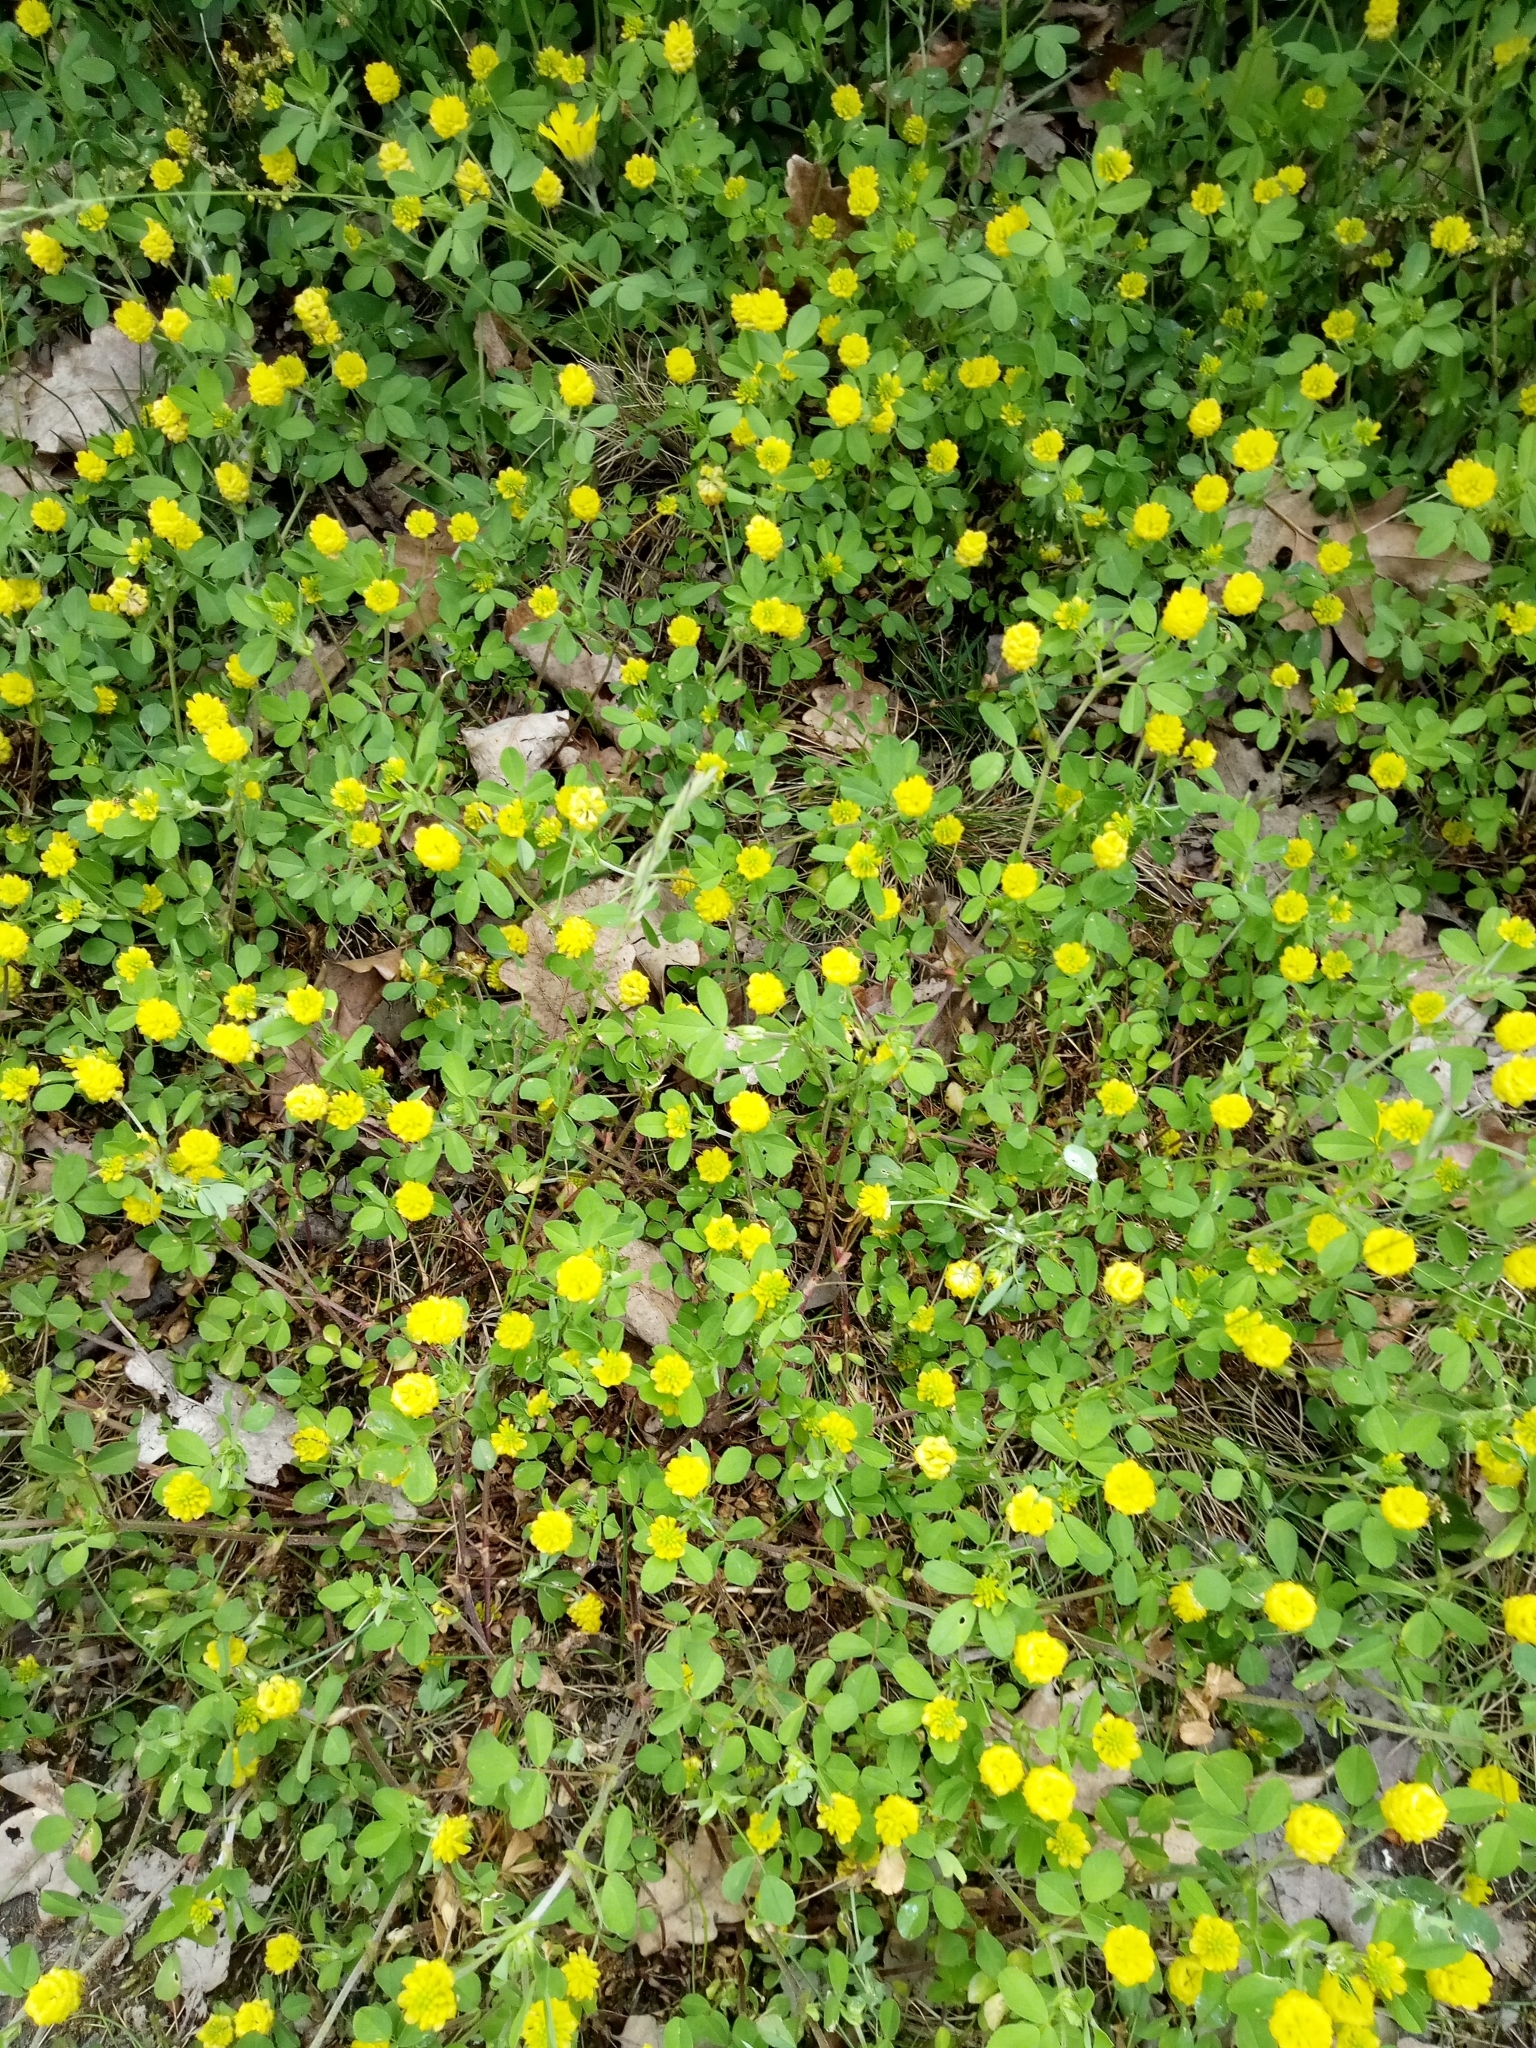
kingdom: Plantae
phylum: Tracheophyta
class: Magnoliopsida
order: Fabales
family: Fabaceae
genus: Trifolium
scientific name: Trifolium campestre
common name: Field clover
